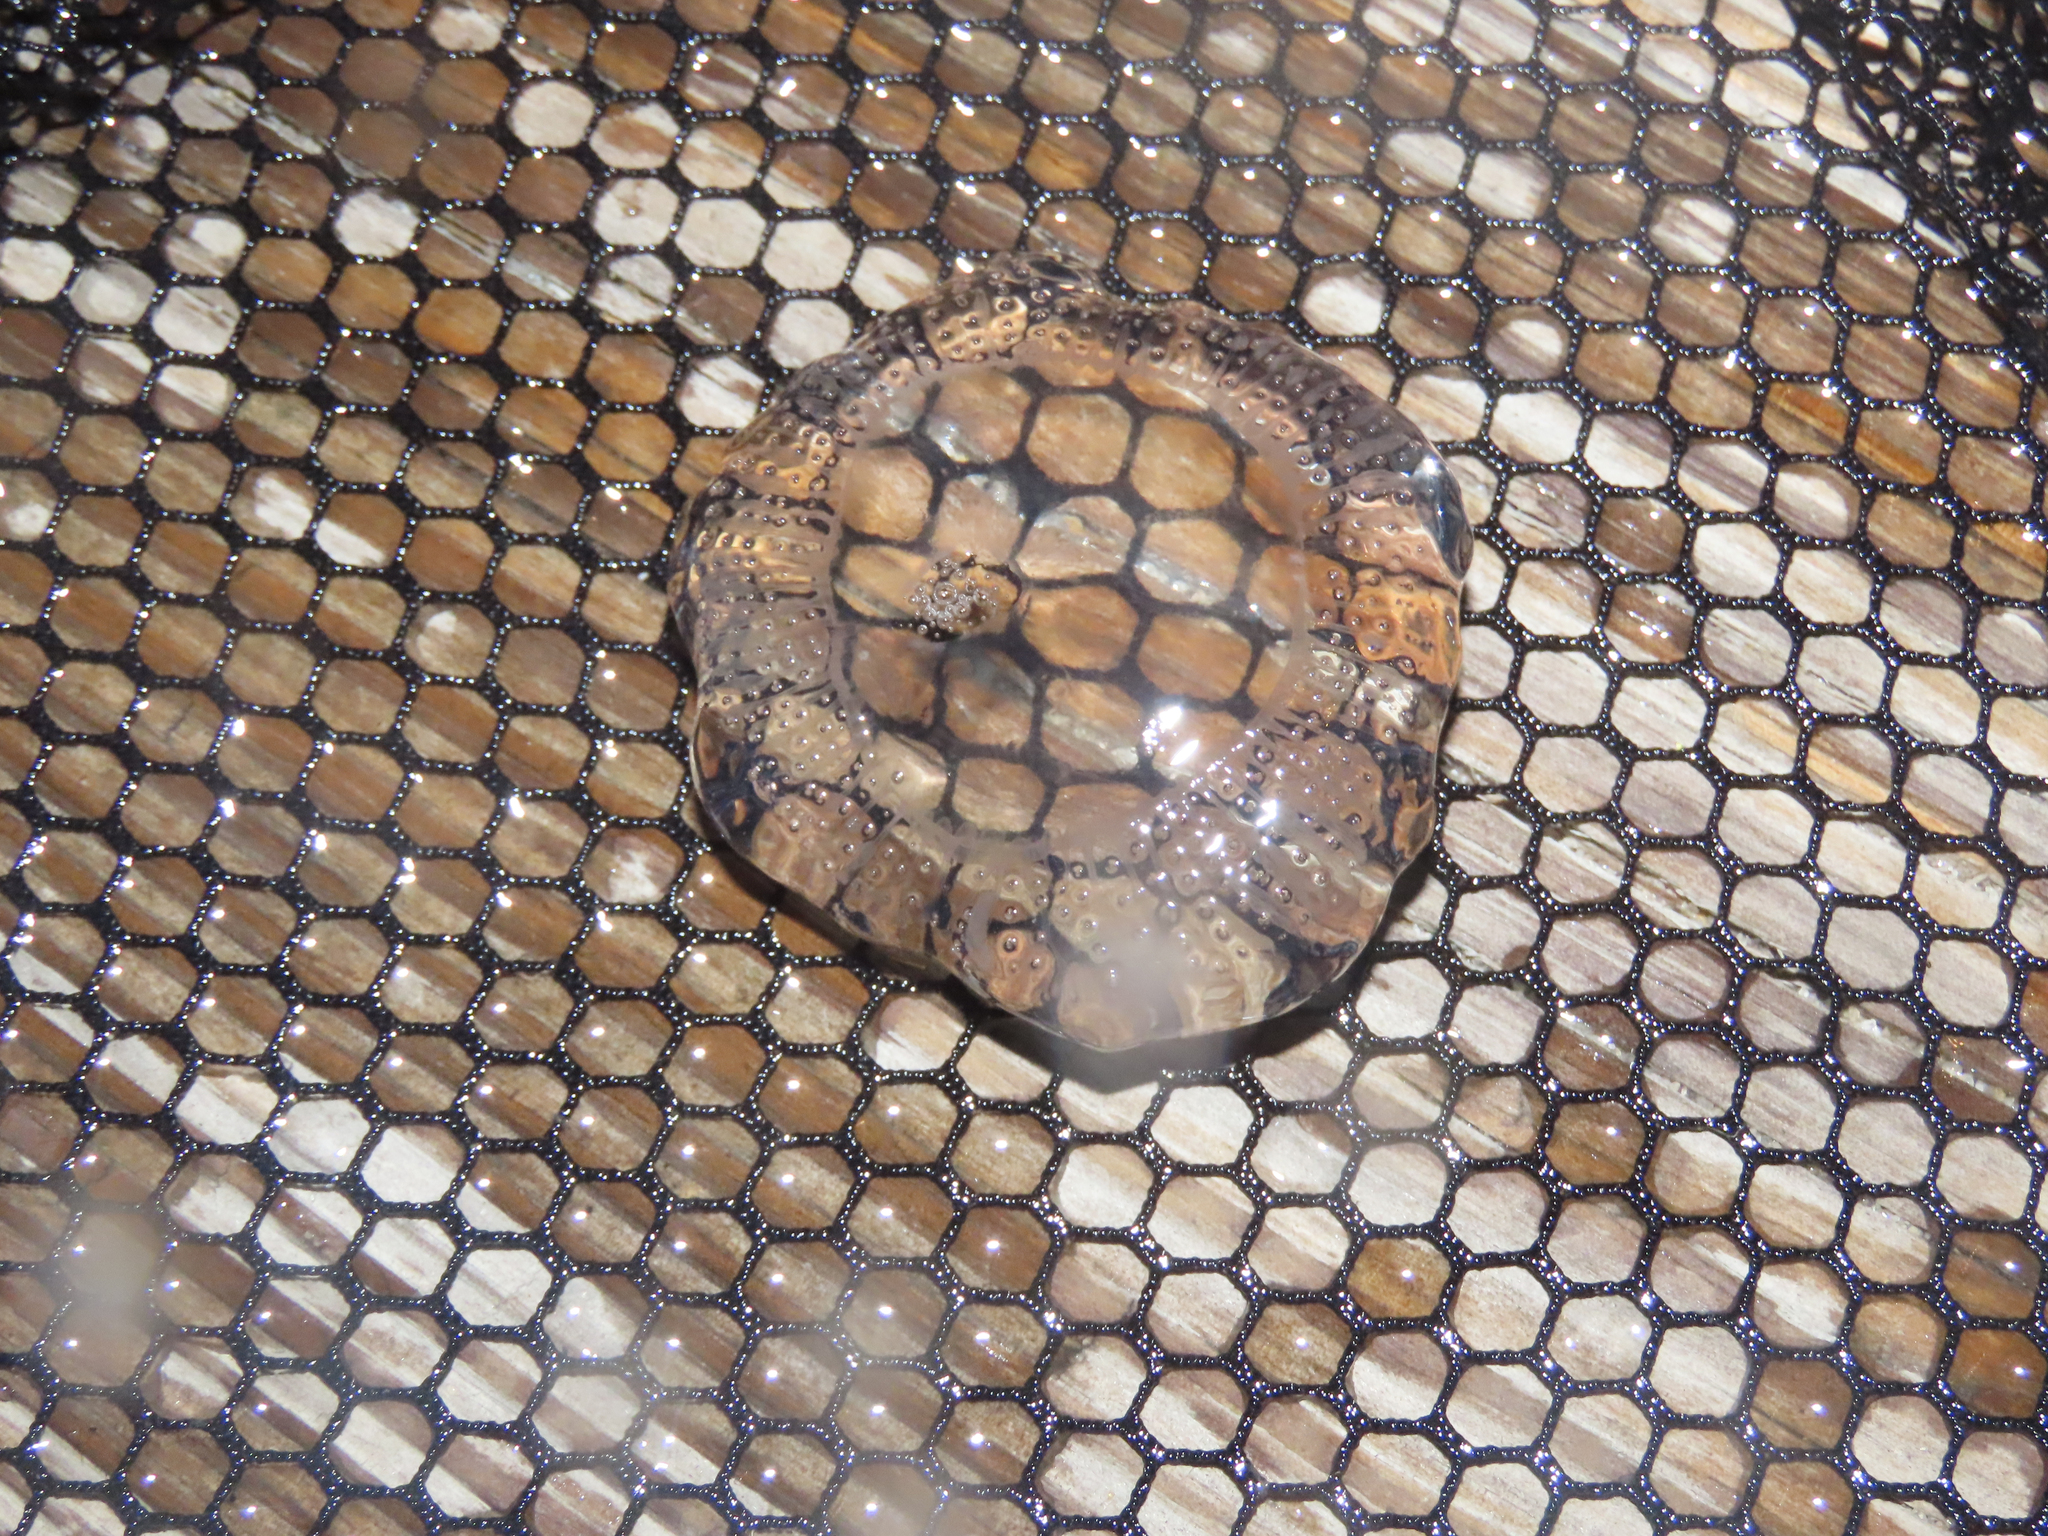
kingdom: Animalia
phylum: Cnidaria
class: Hydrozoa
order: Leptothecata
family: Aequoreidae
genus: Rhacostoma
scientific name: Rhacostoma atlanticum
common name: Lined water jelly
